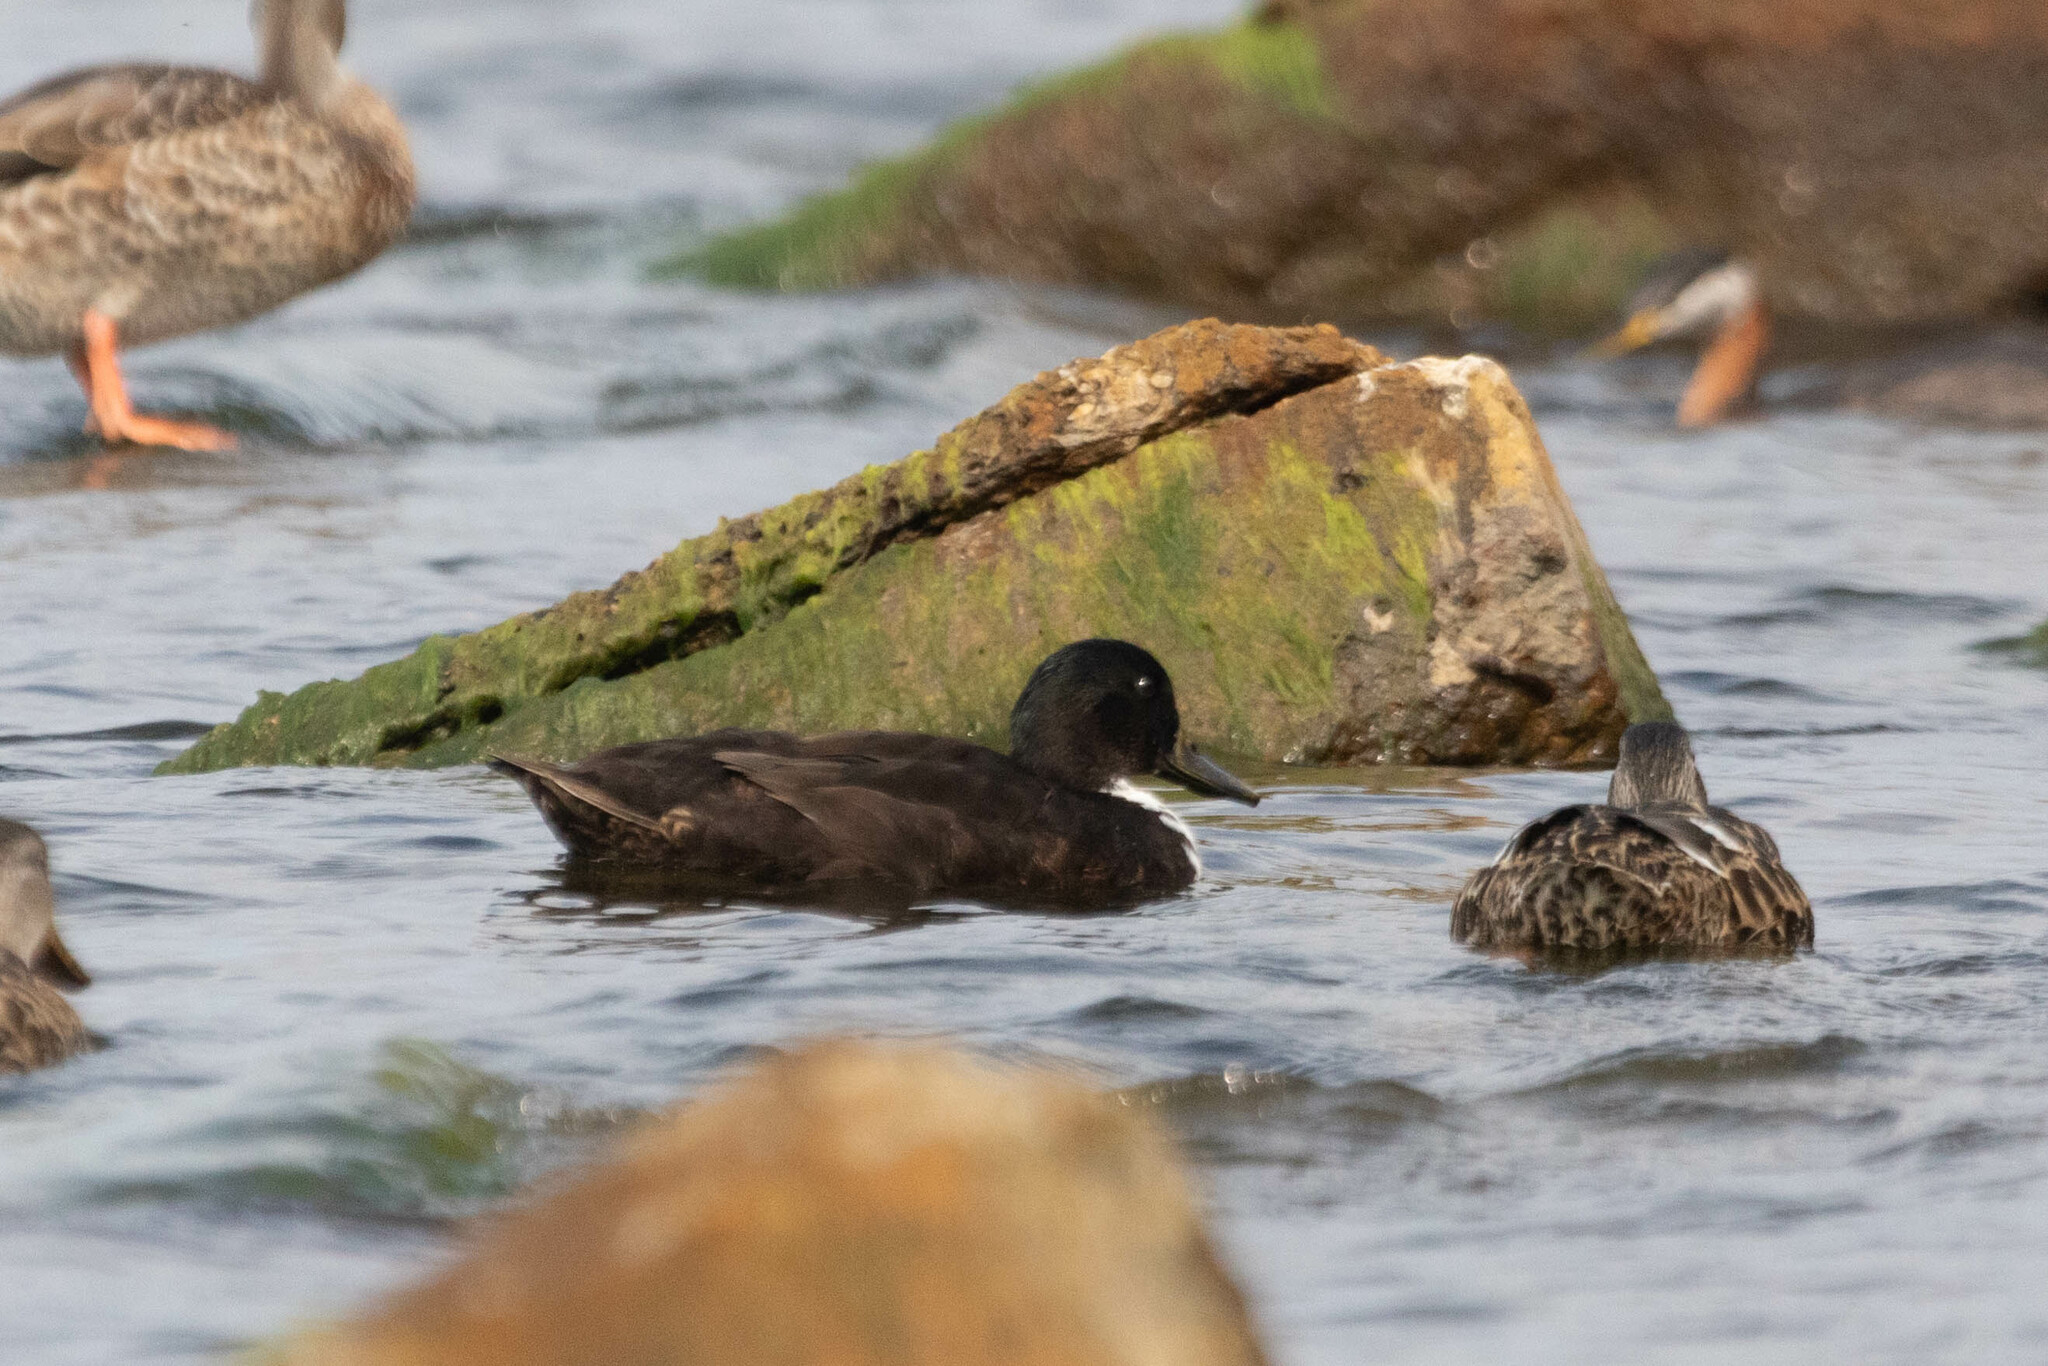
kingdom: Animalia
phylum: Chordata
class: Aves
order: Anseriformes
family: Anatidae
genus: Anas
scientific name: Anas platyrhynchos
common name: Mallard
